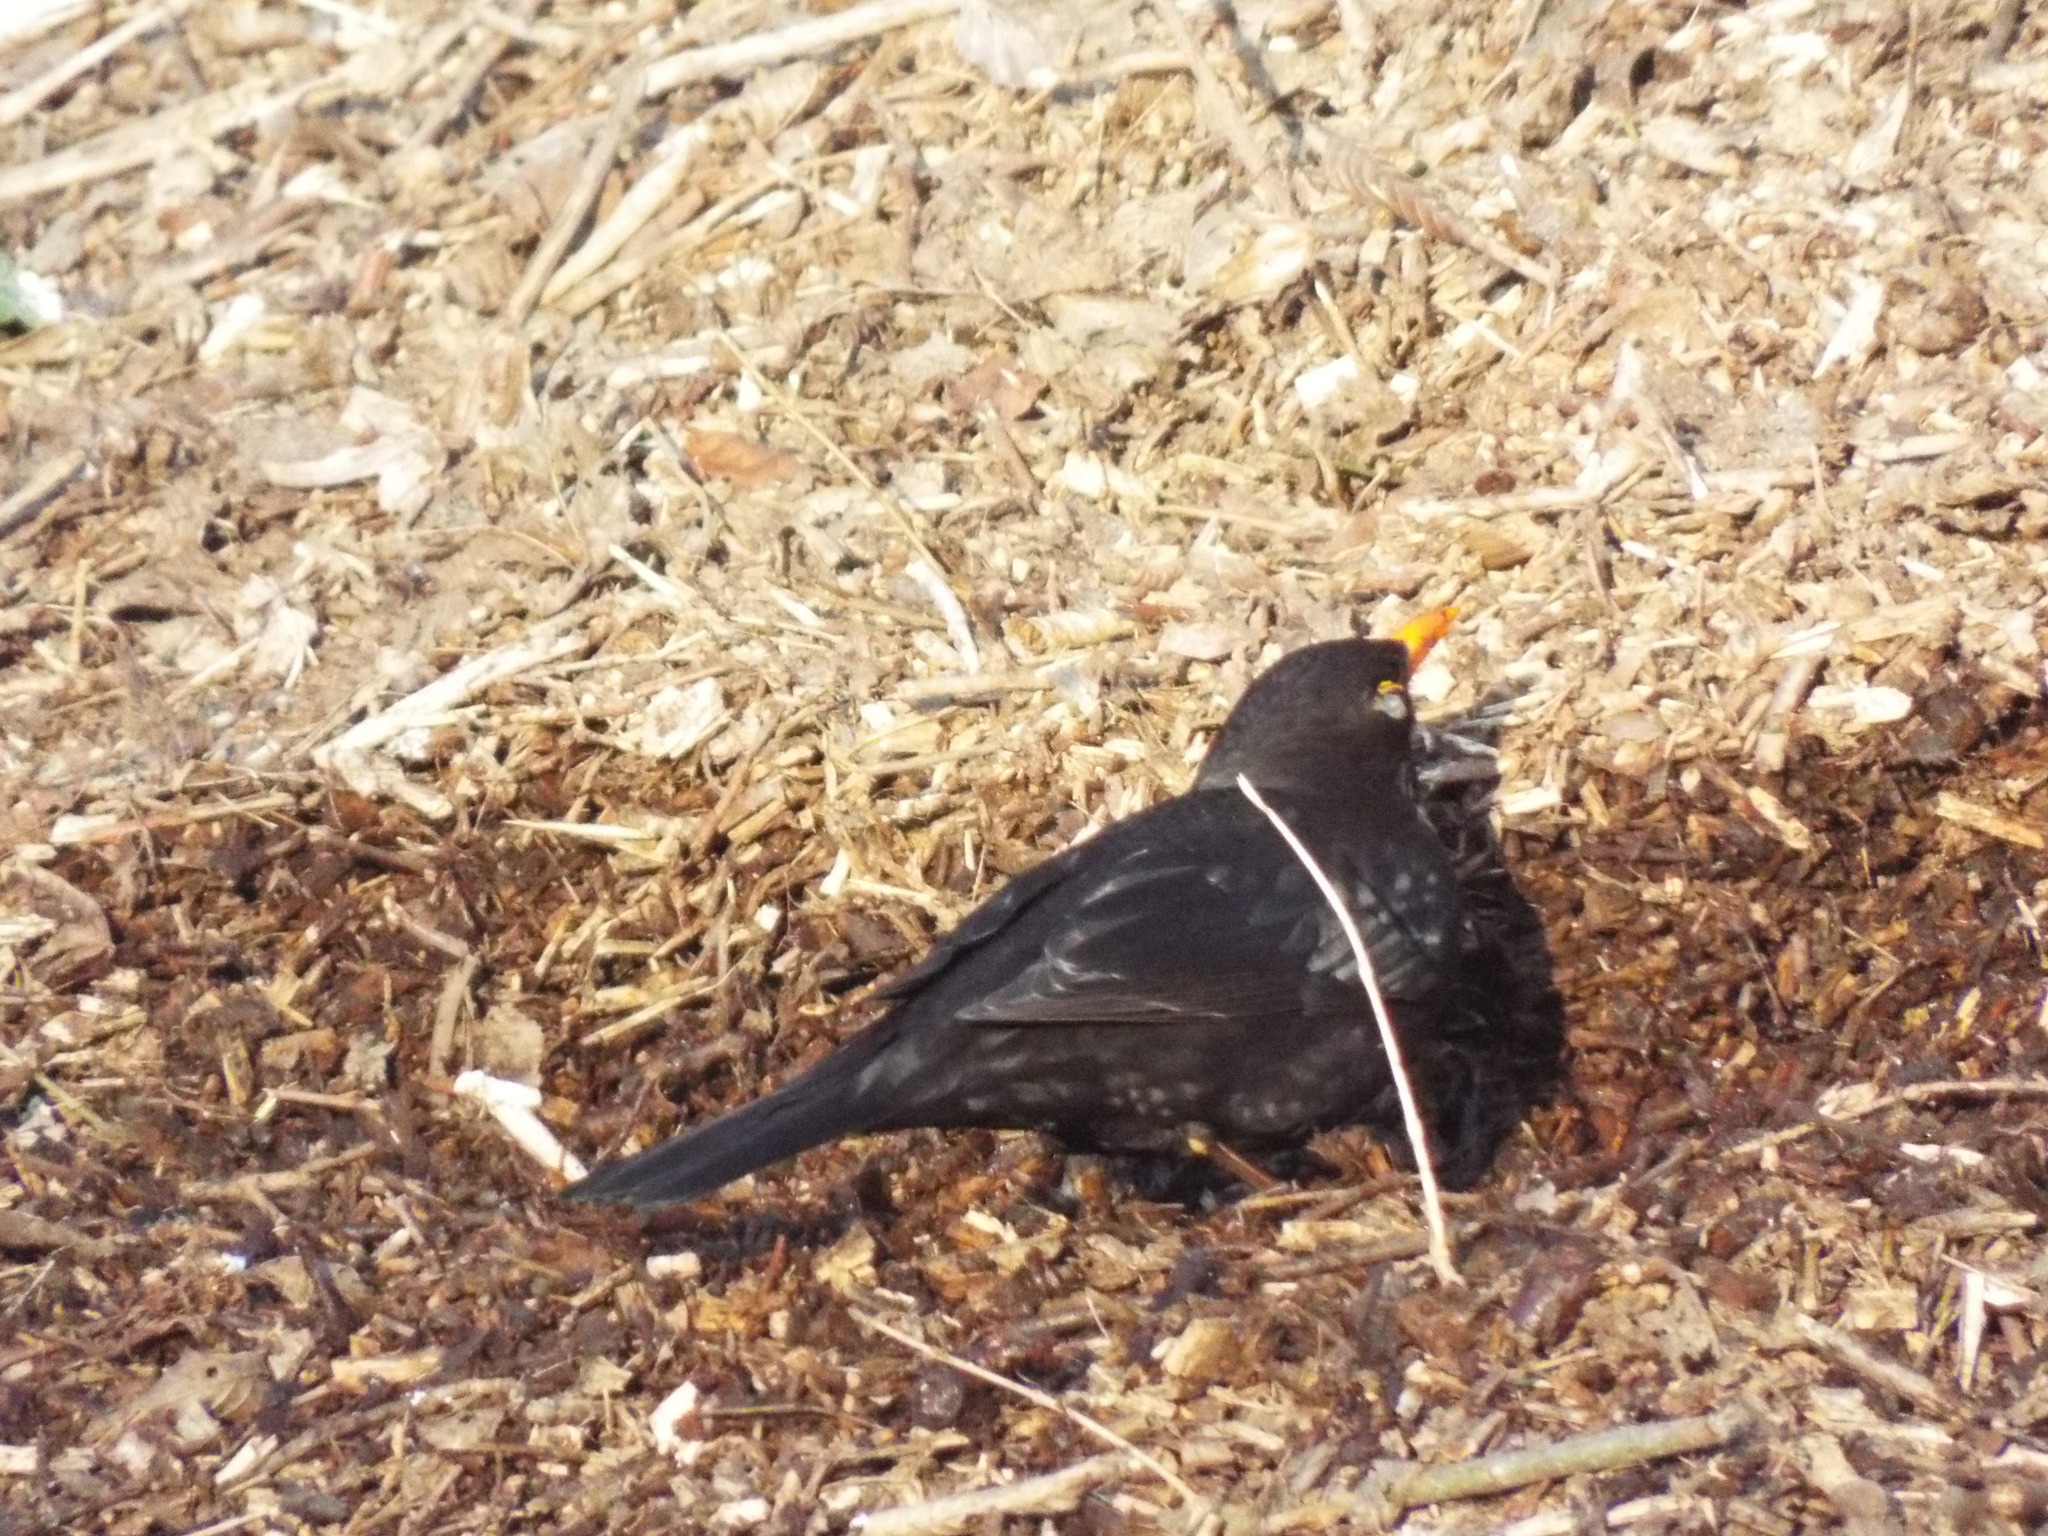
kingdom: Animalia
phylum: Chordata
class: Aves
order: Passeriformes
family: Turdidae
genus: Turdus
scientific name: Turdus merula
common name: Common blackbird
